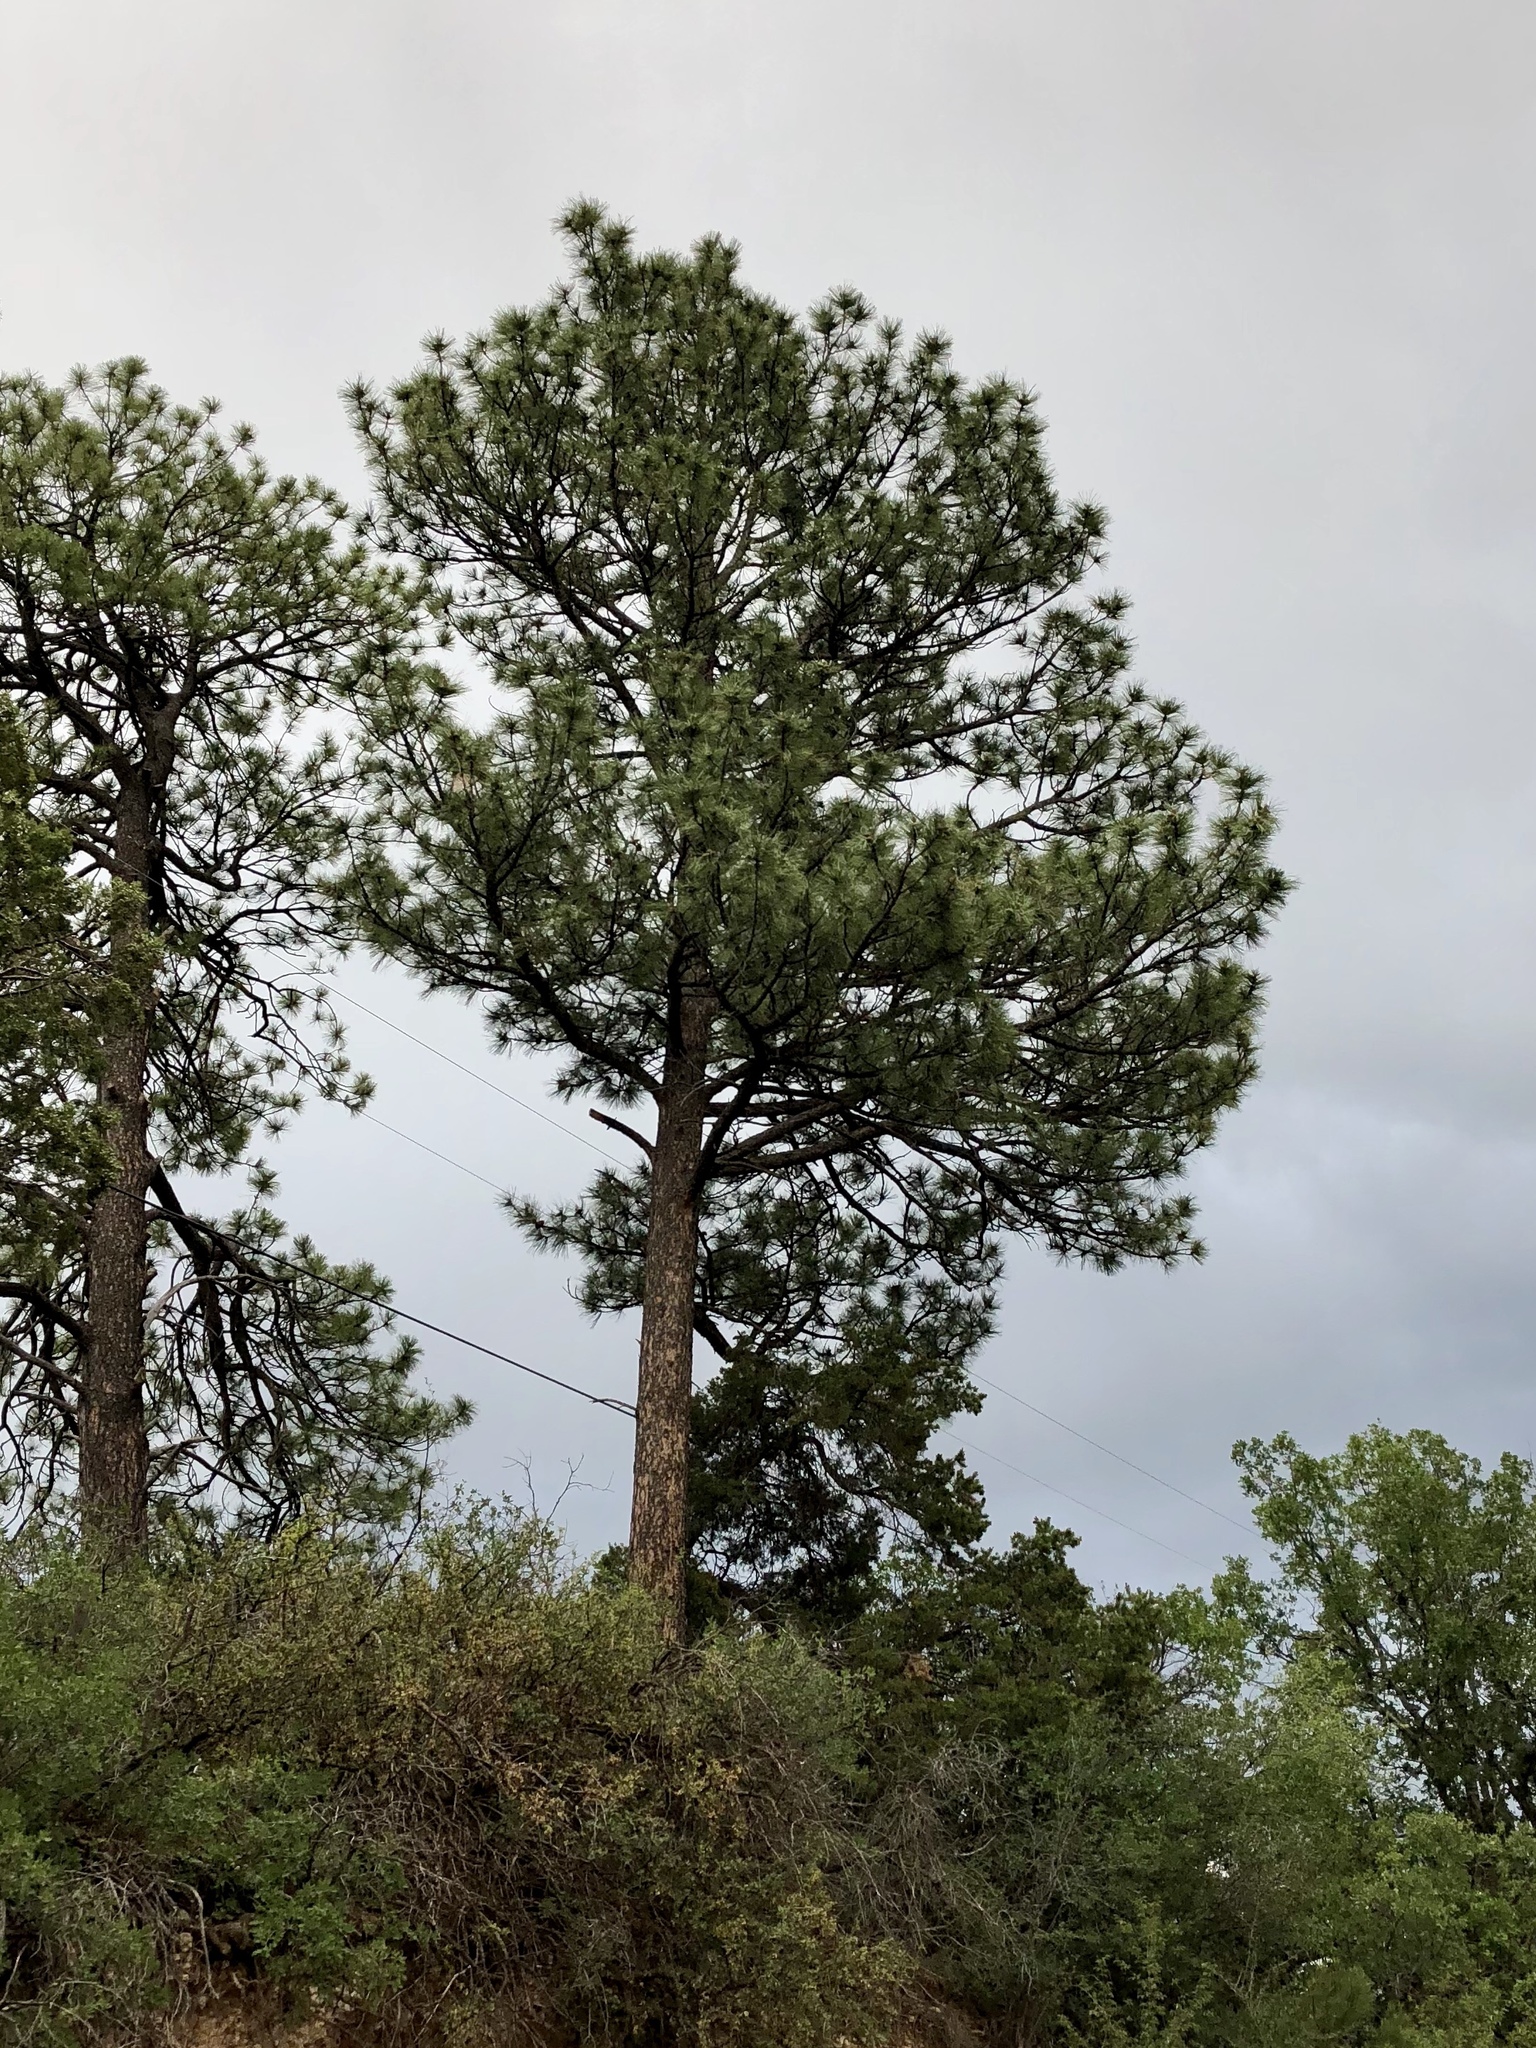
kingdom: Plantae
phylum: Tracheophyta
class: Pinopsida
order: Pinales
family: Pinaceae
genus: Pinus
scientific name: Pinus ponderosa
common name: Western yellow-pine
